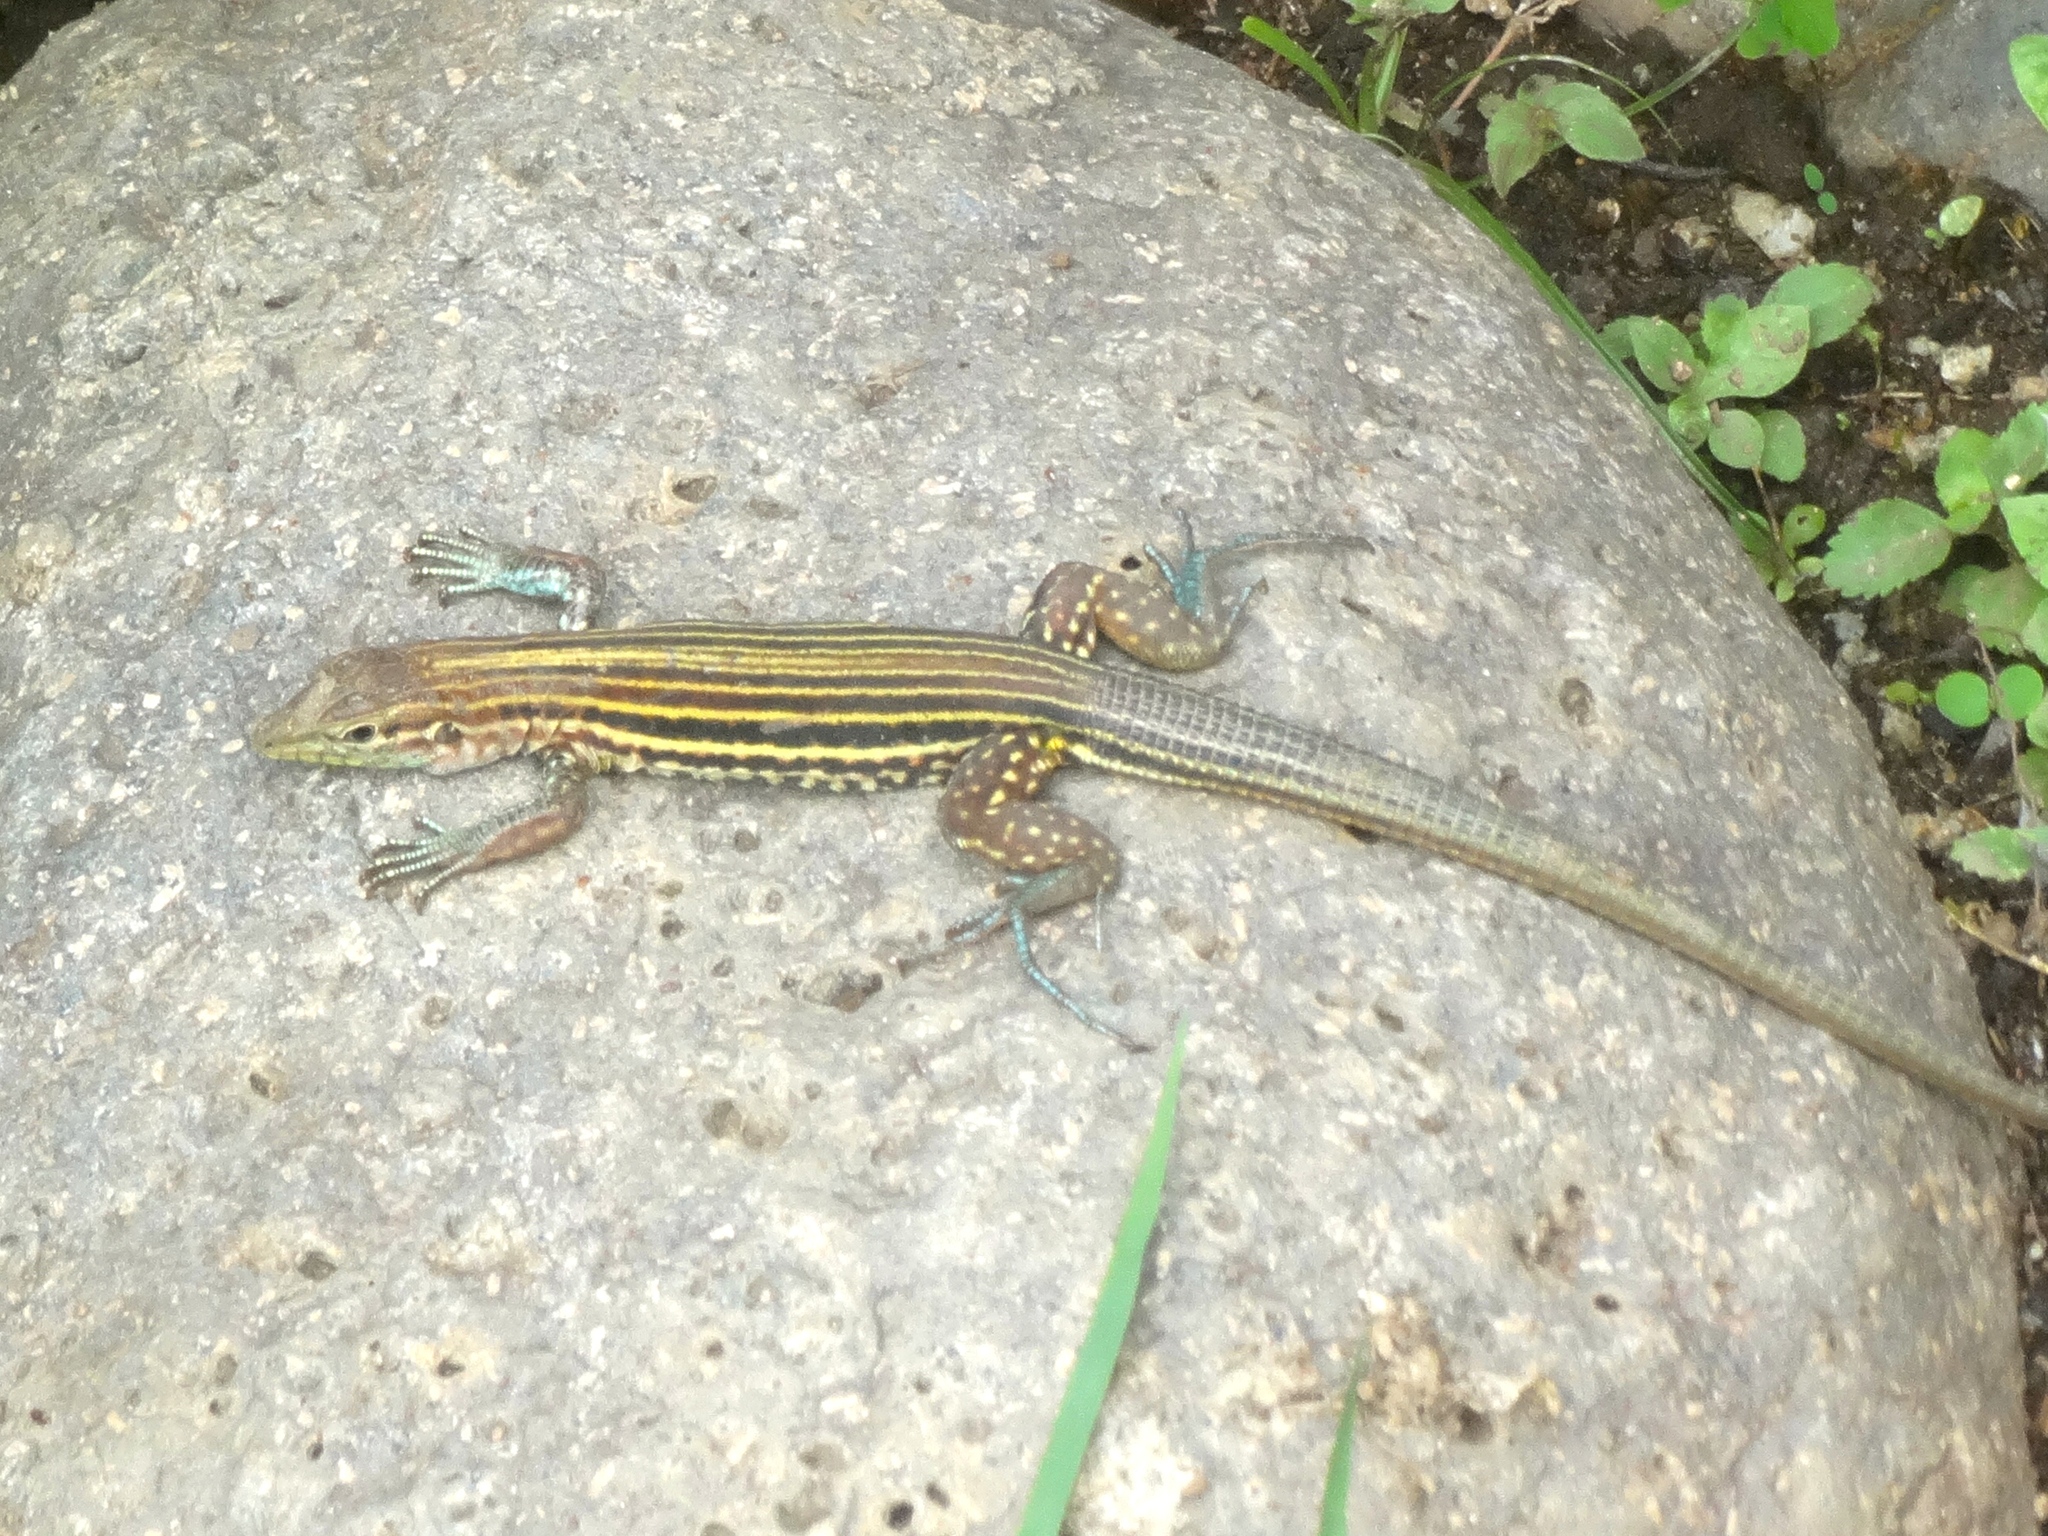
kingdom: Animalia
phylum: Chordata
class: Squamata
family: Teiidae
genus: Aspidoscelis
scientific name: Aspidoscelis lineattissimus
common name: Many-lined whiptail
